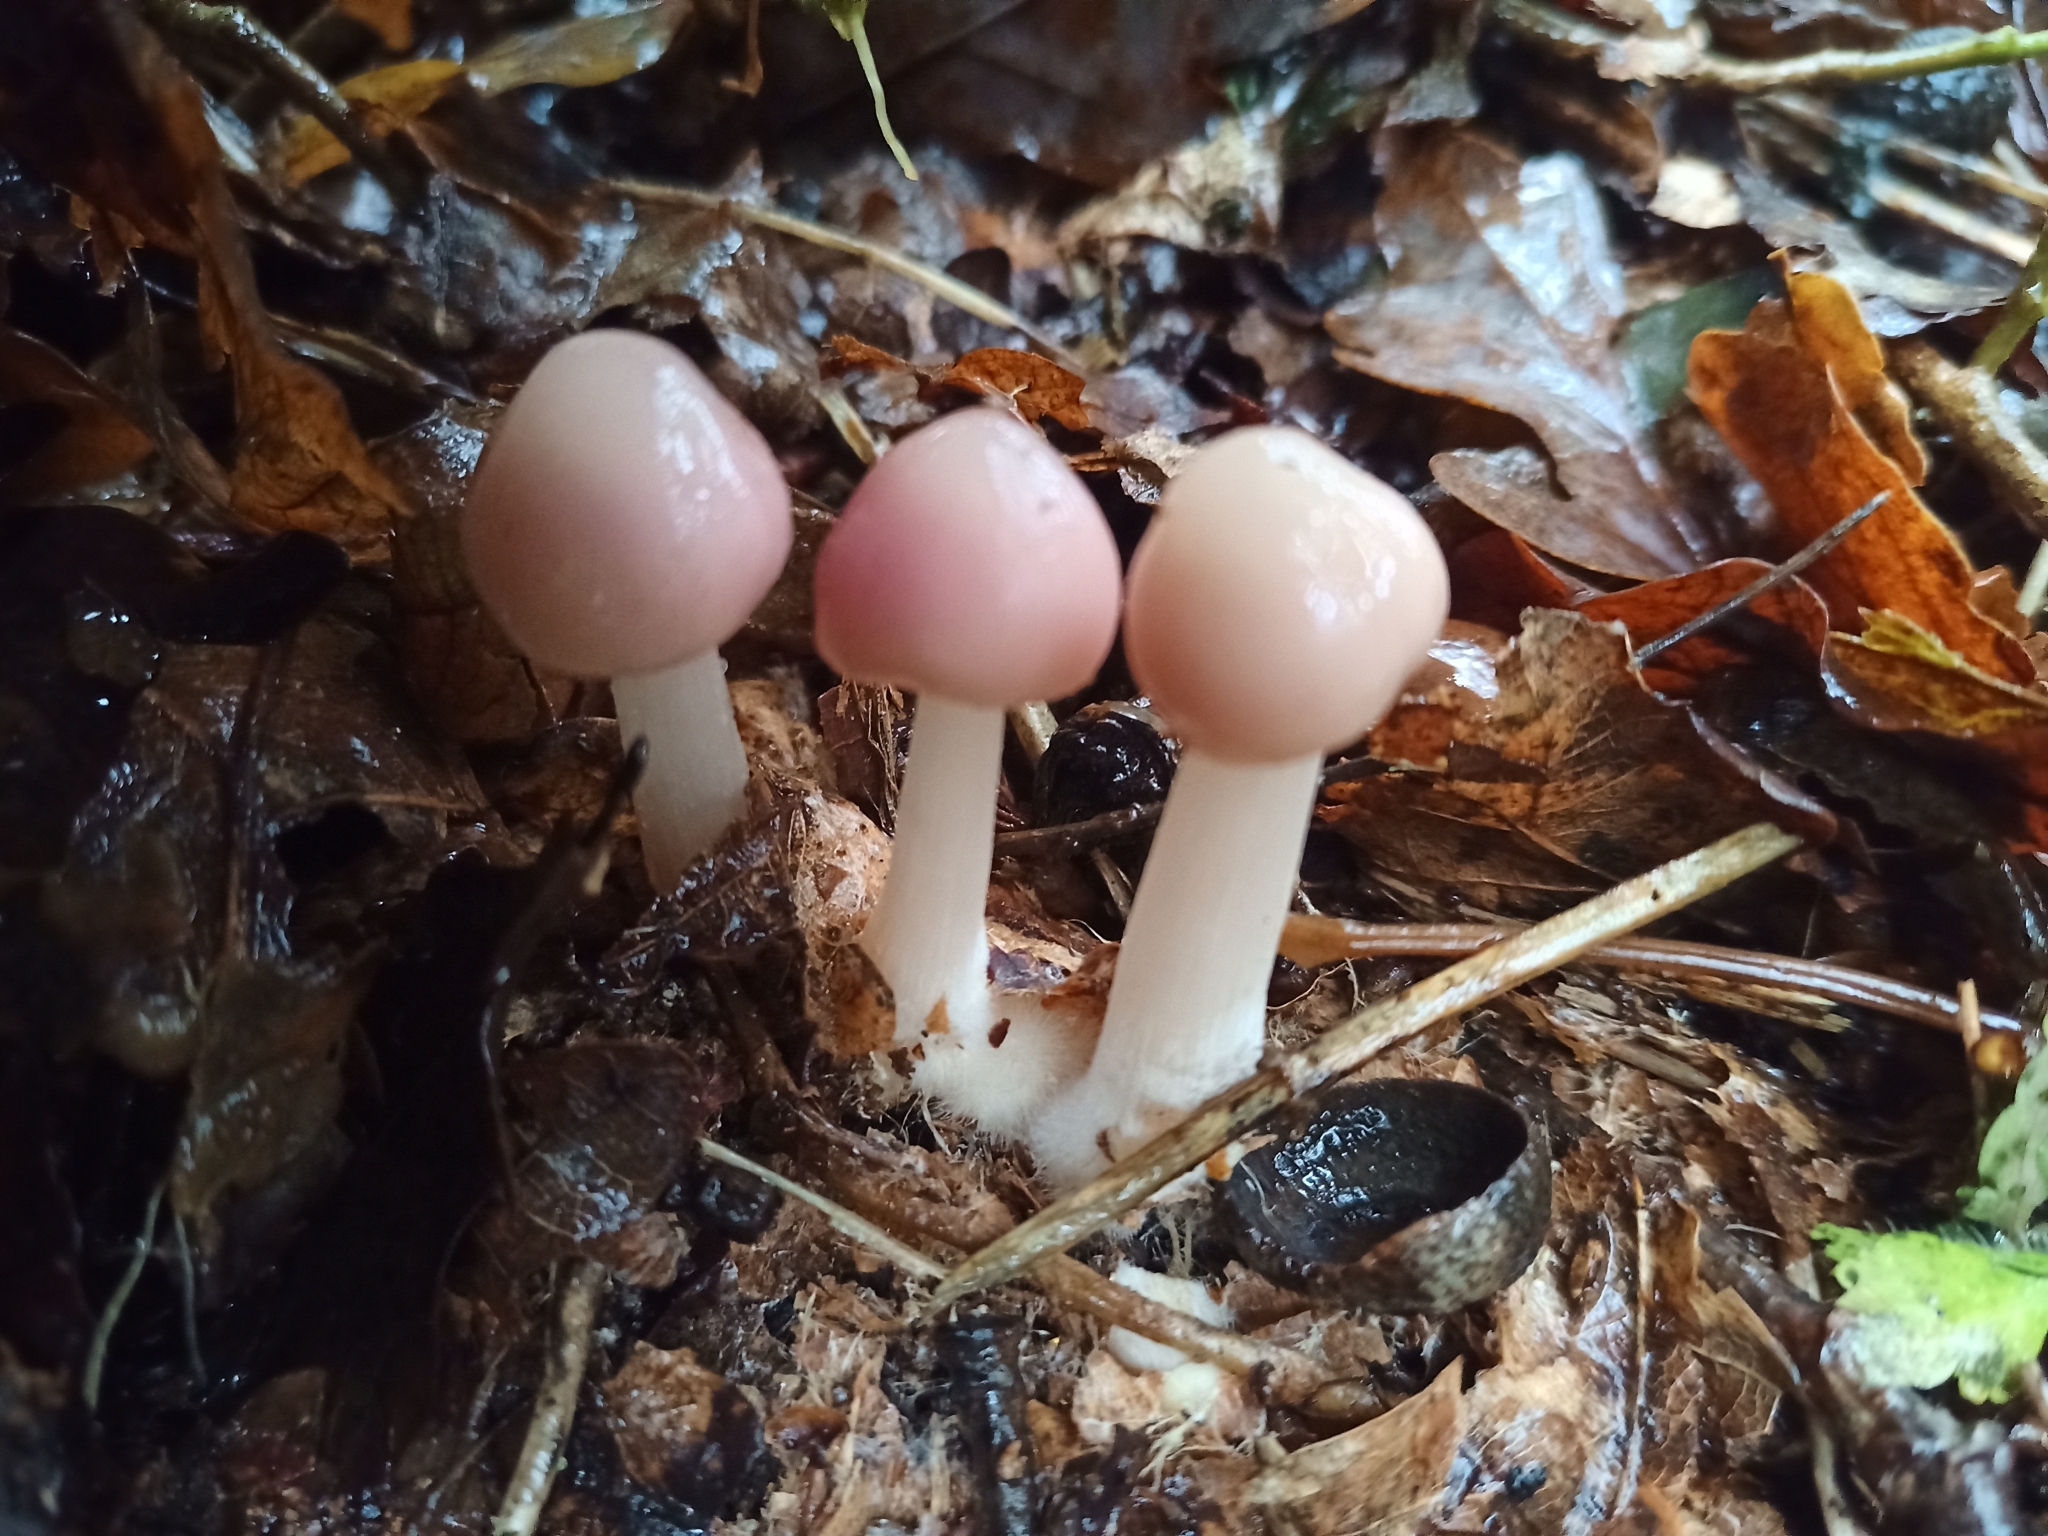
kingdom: Fungi
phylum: Basidiomycota
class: Agaricomycetes
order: Agaricales
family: Mycenaceae
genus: Mycena
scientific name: Mycena rosea
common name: Rosy bonnet
